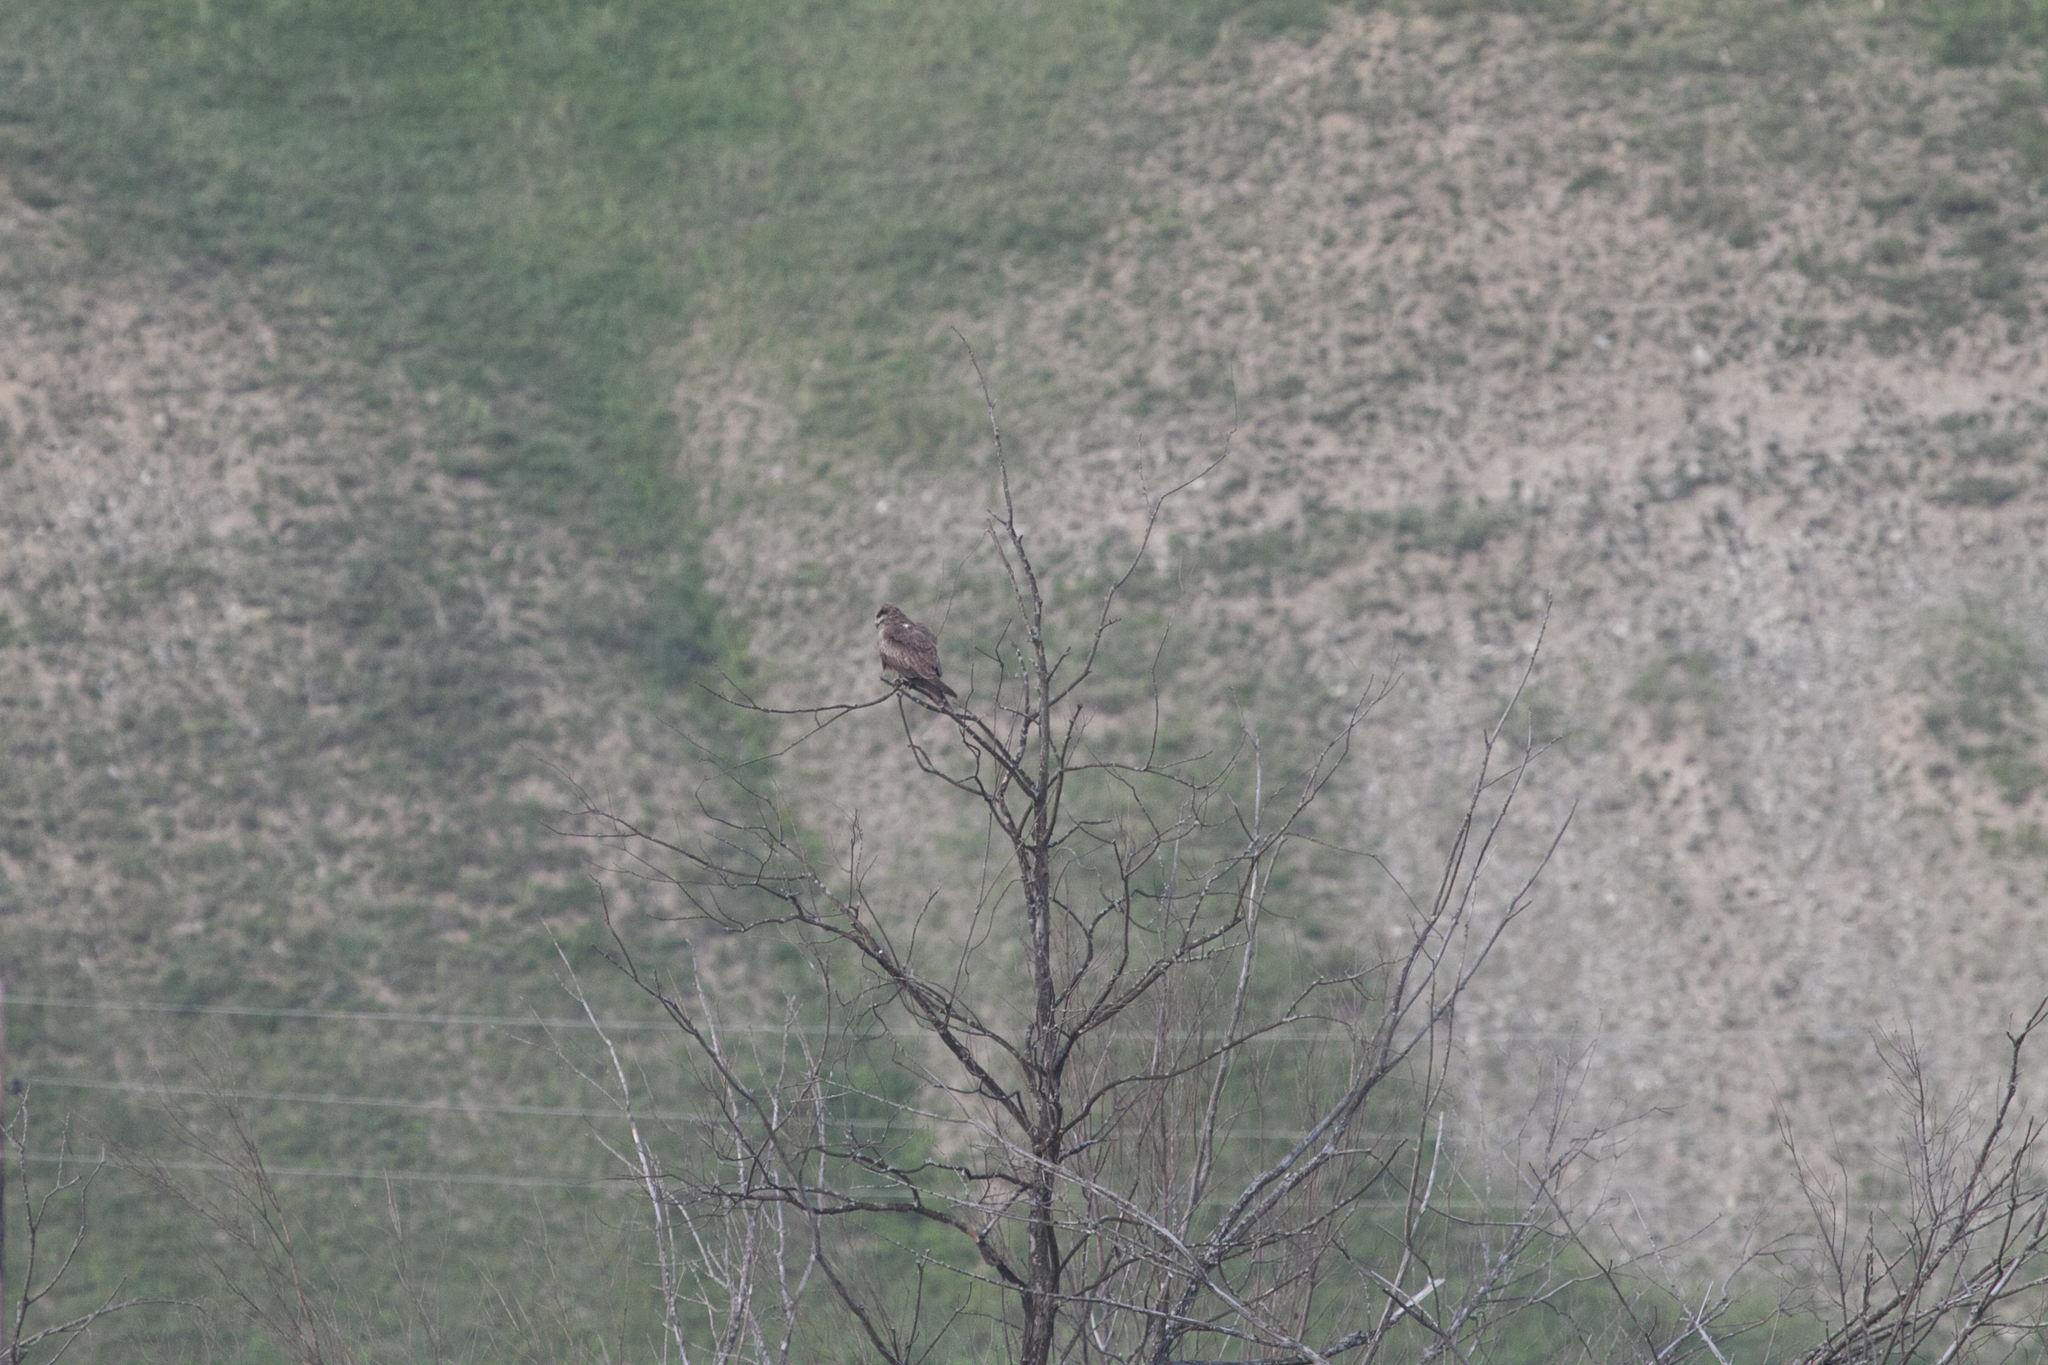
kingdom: Animalia
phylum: Chordata
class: Aves
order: Accipitriformes
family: Accipitridae
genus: Milvus
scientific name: Milvus migrans
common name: Black kite
